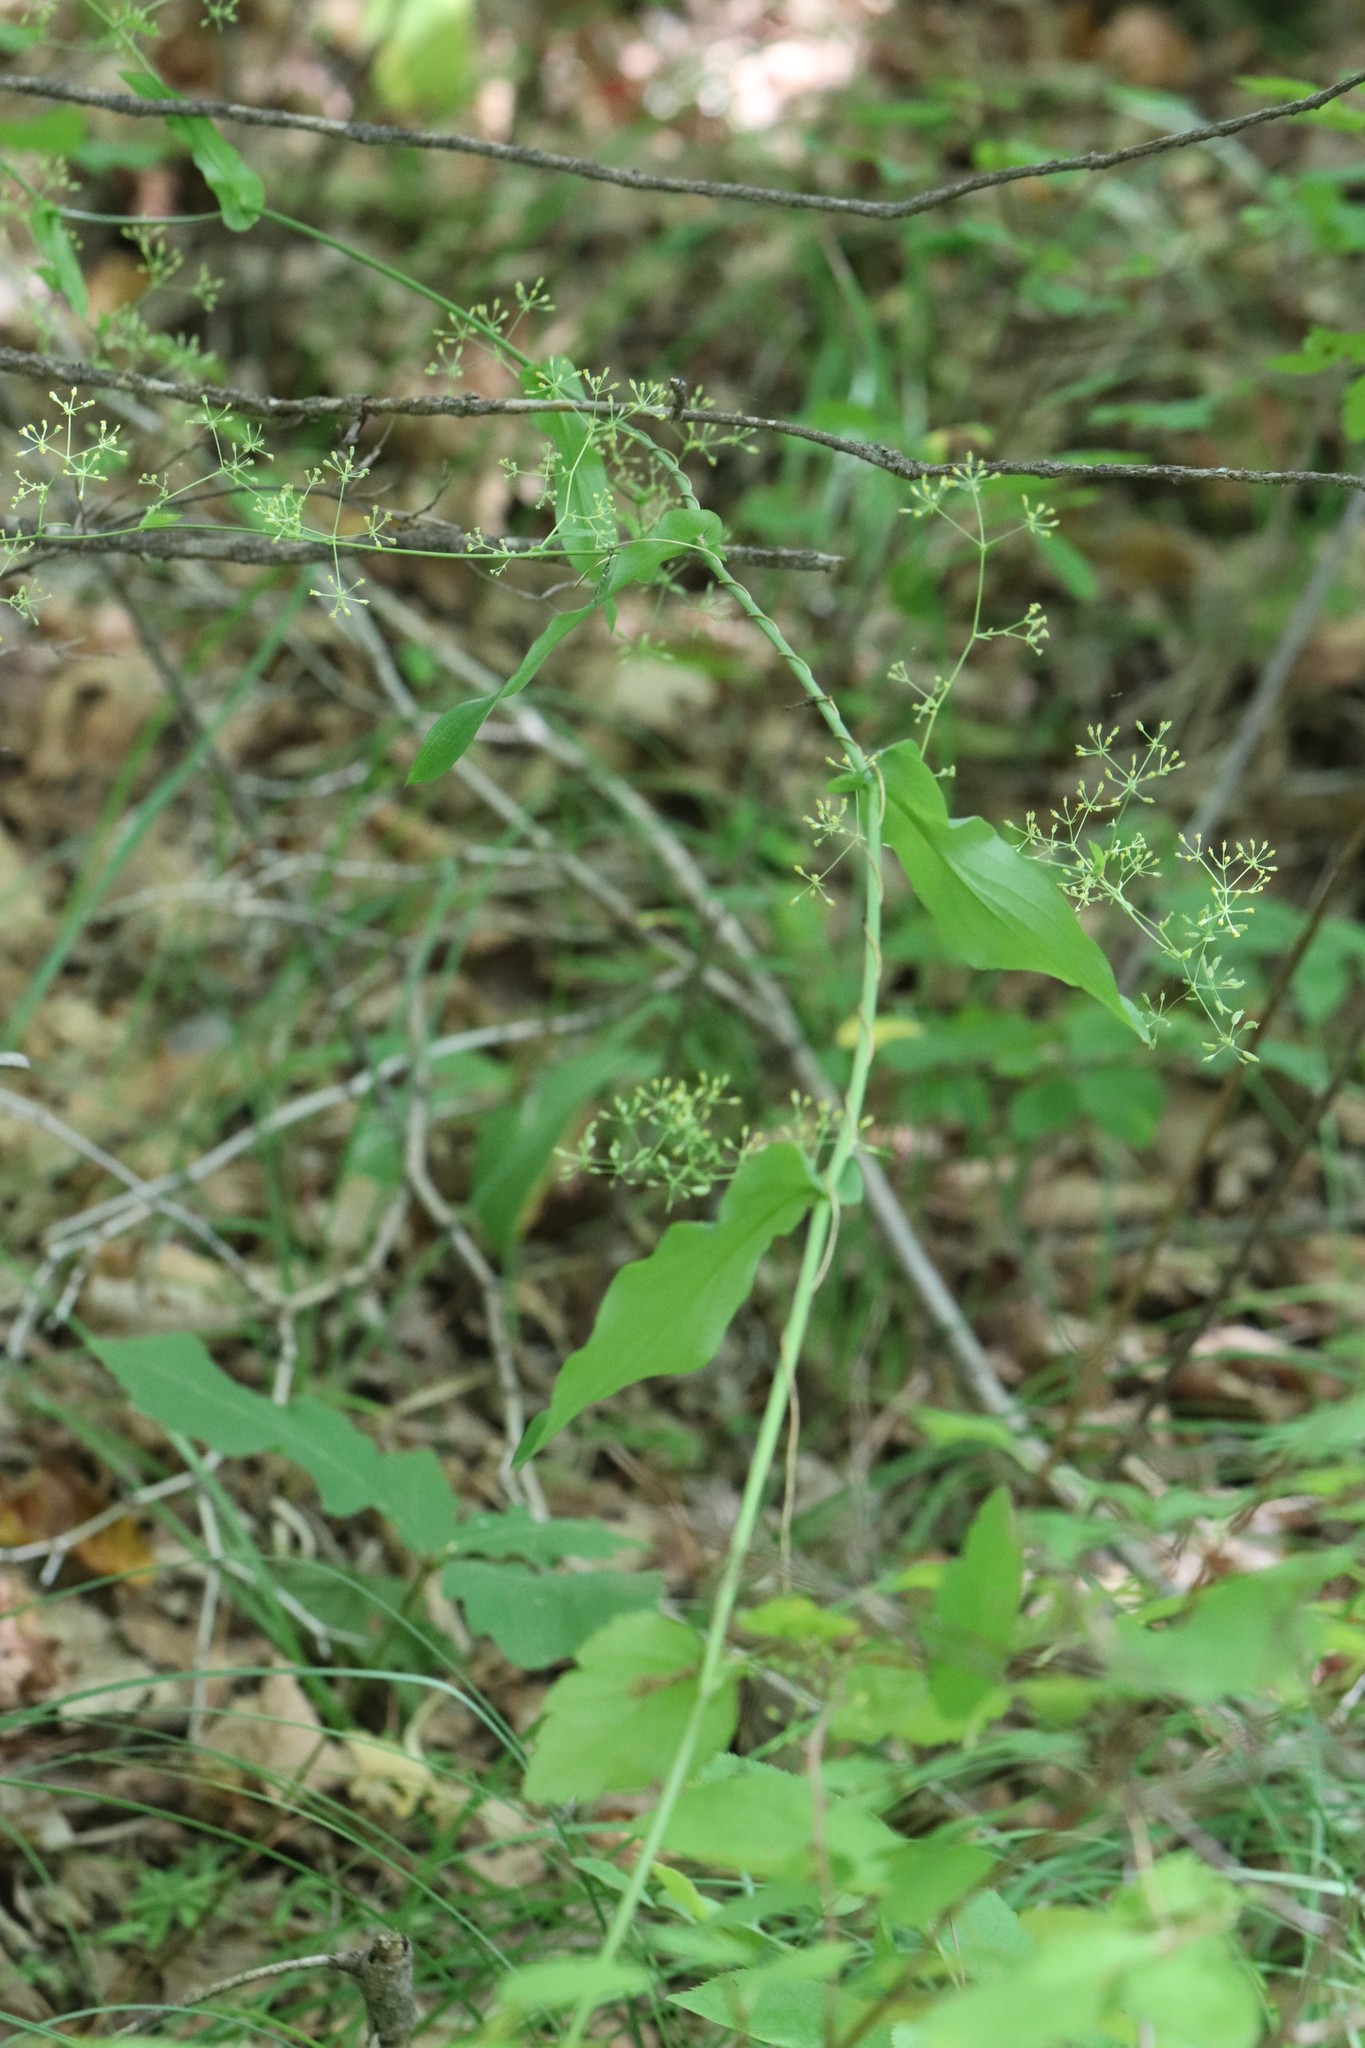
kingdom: Plantae
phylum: Tracheophyta
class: Magnoliopsida
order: Apiales
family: Apiaceae
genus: Bupleurum
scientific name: Bupleurum longiradiatum
